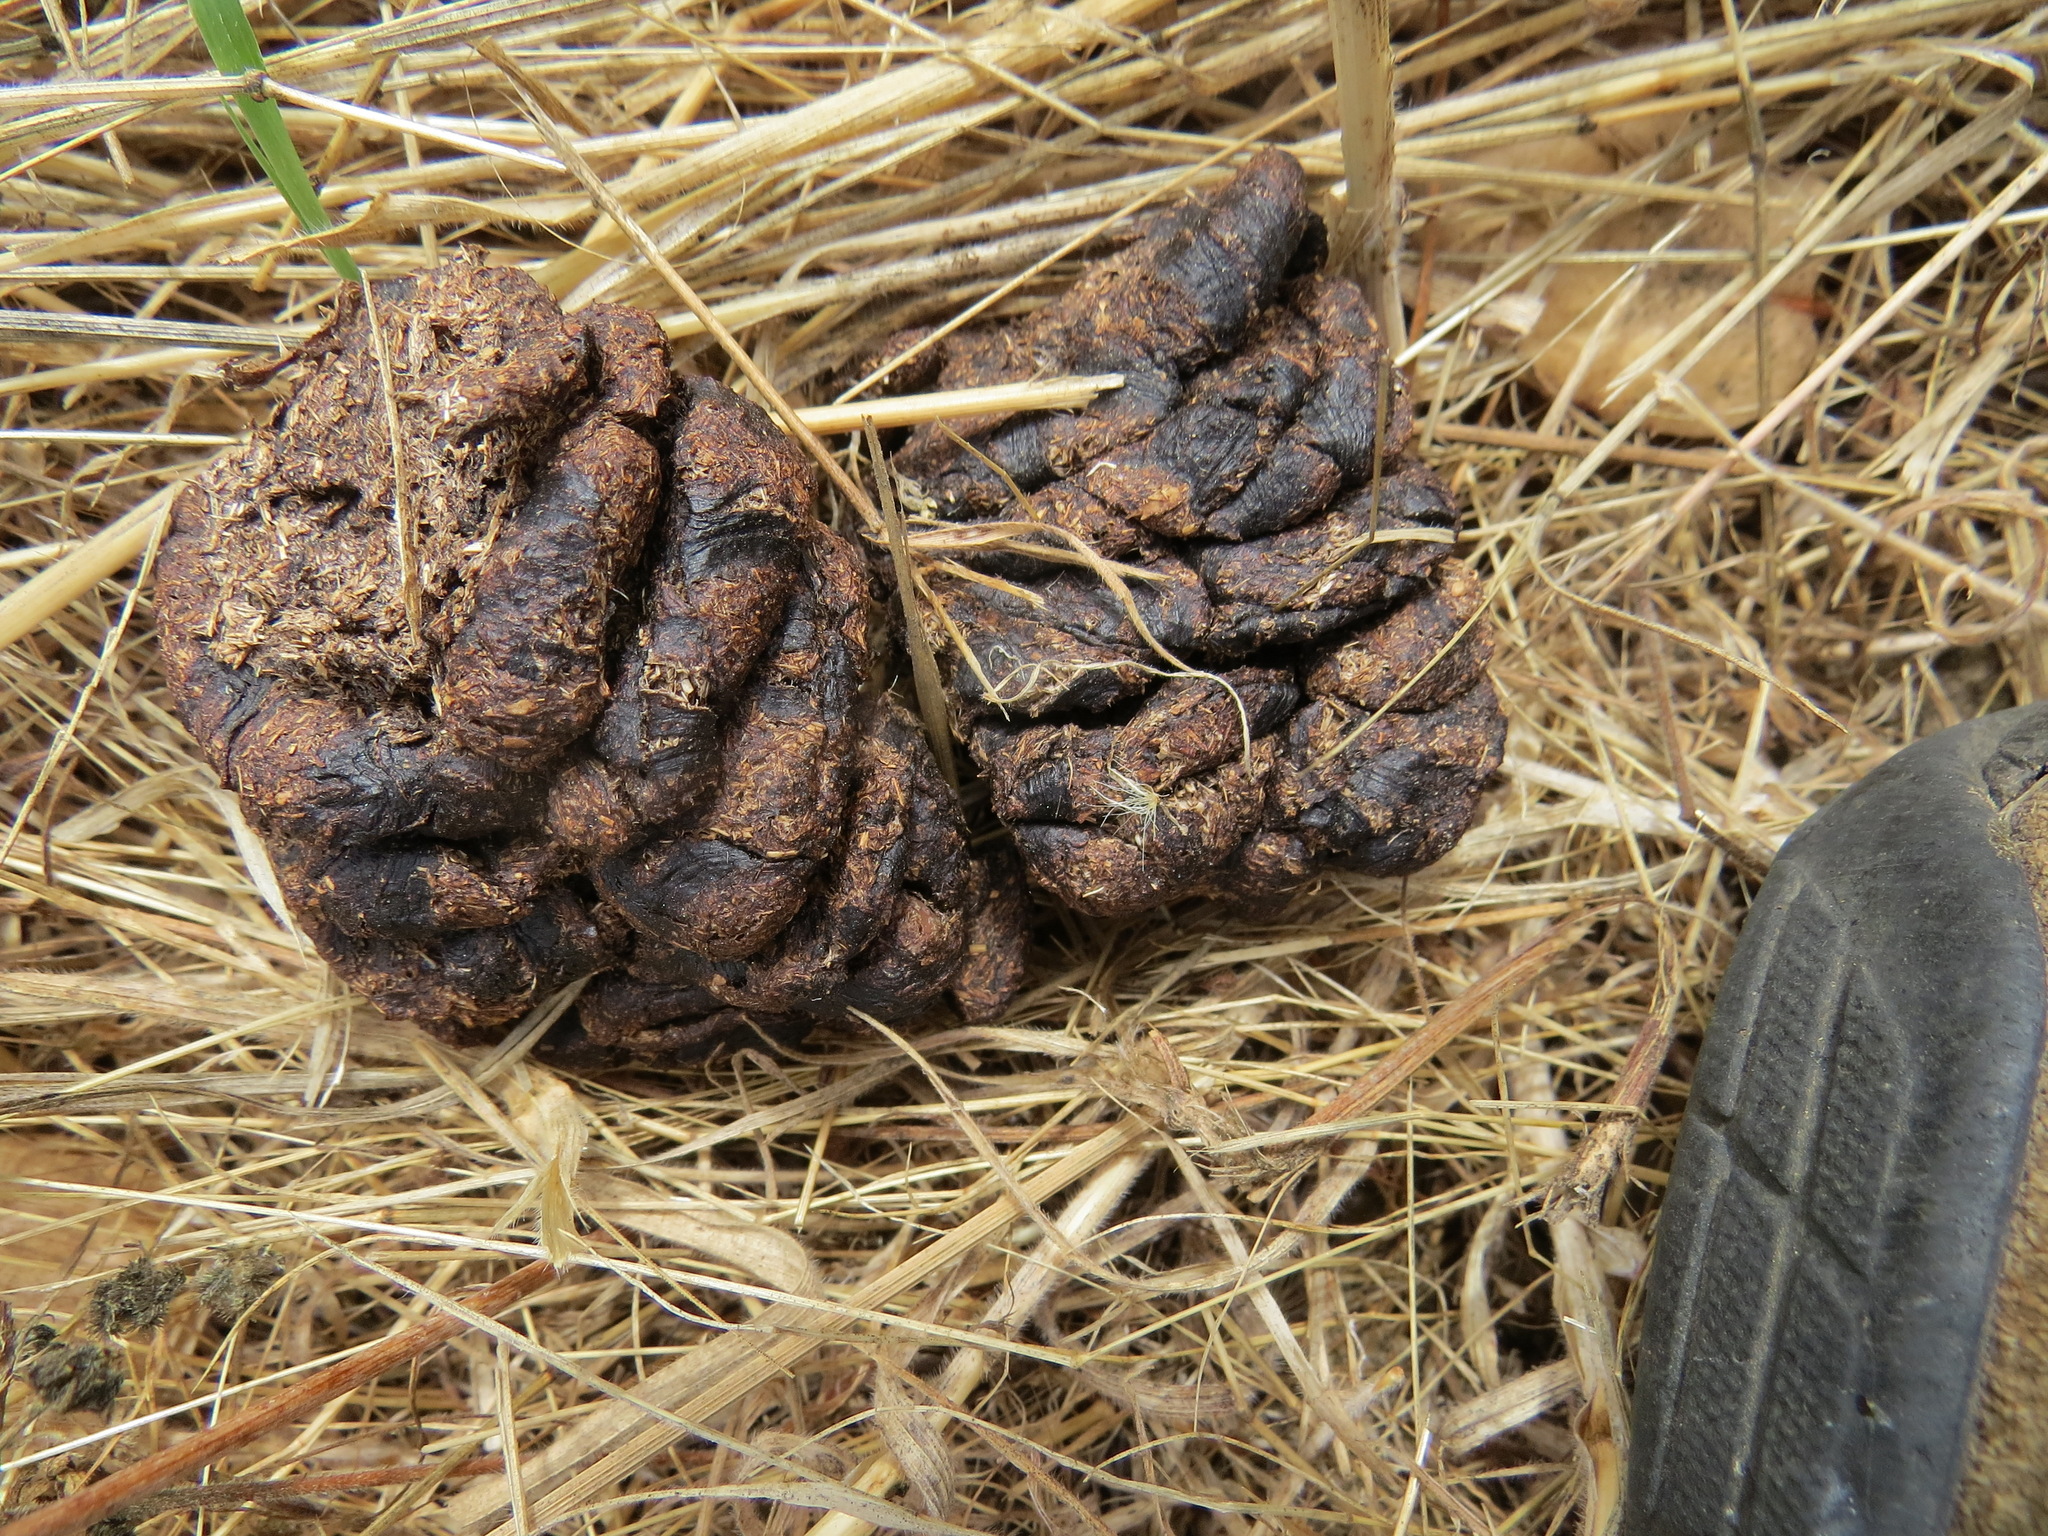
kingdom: Animalia
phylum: Chordata
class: Mammalia
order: Artiodactyla
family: Cervidae
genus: Odocoileus
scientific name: Odocoileus hemionus
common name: Mule deer
